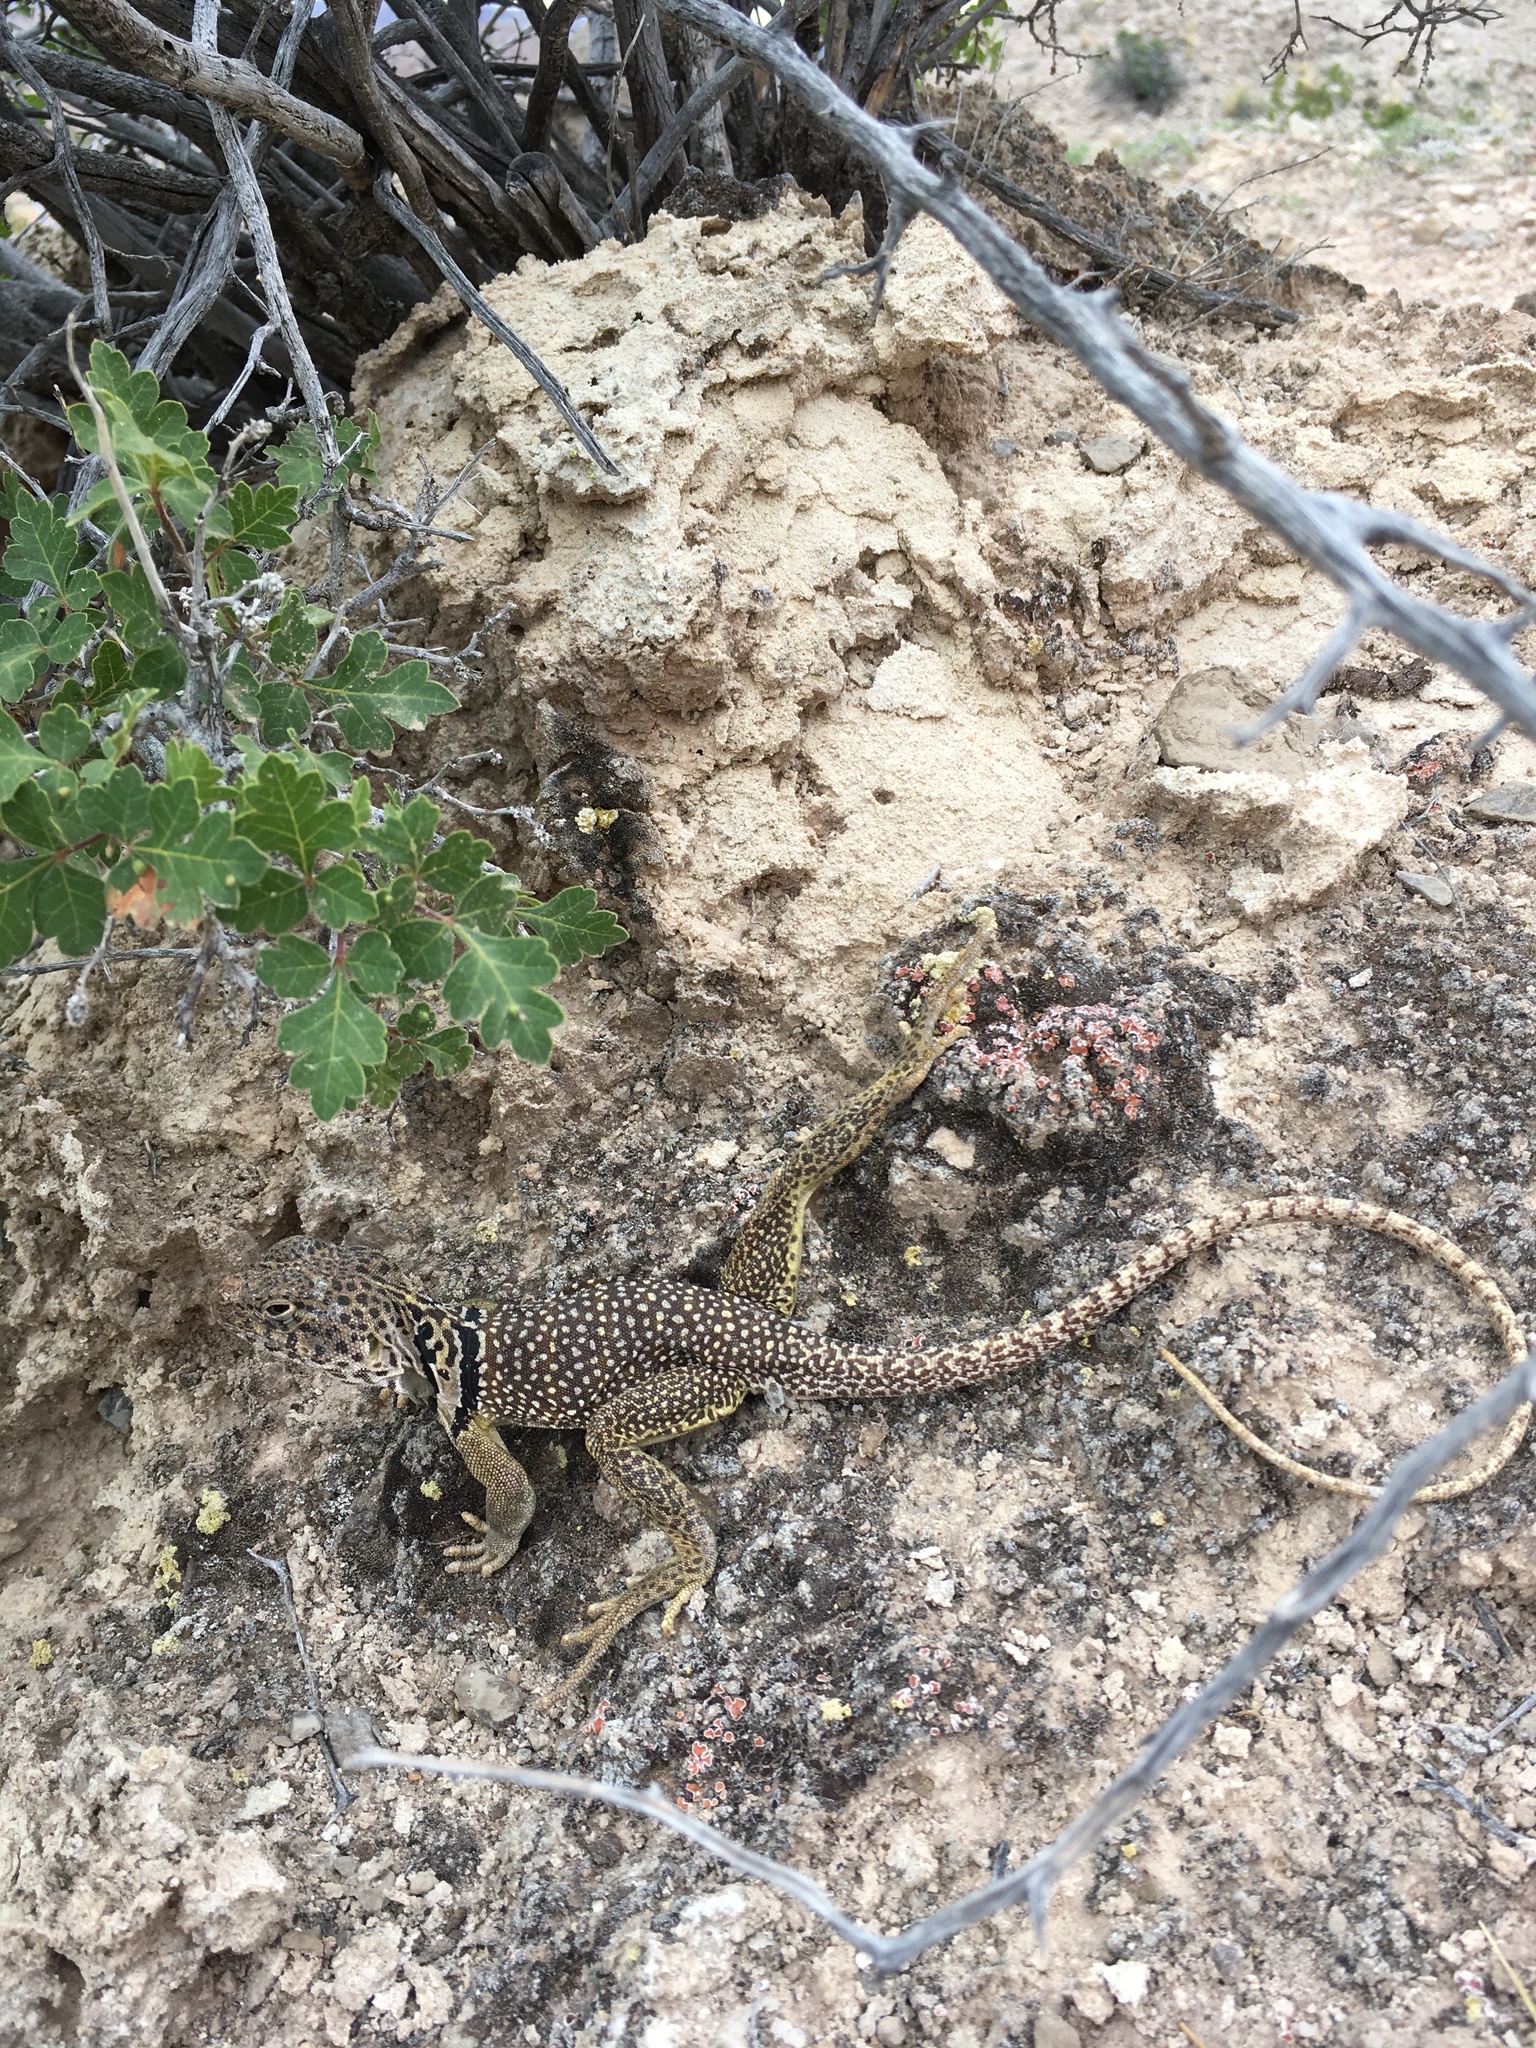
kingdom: Animalia
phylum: Chordata
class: Squamata
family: Crotaphytidae
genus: Crotaphytus
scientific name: Crotaphytus collaris
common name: Collared lizard
